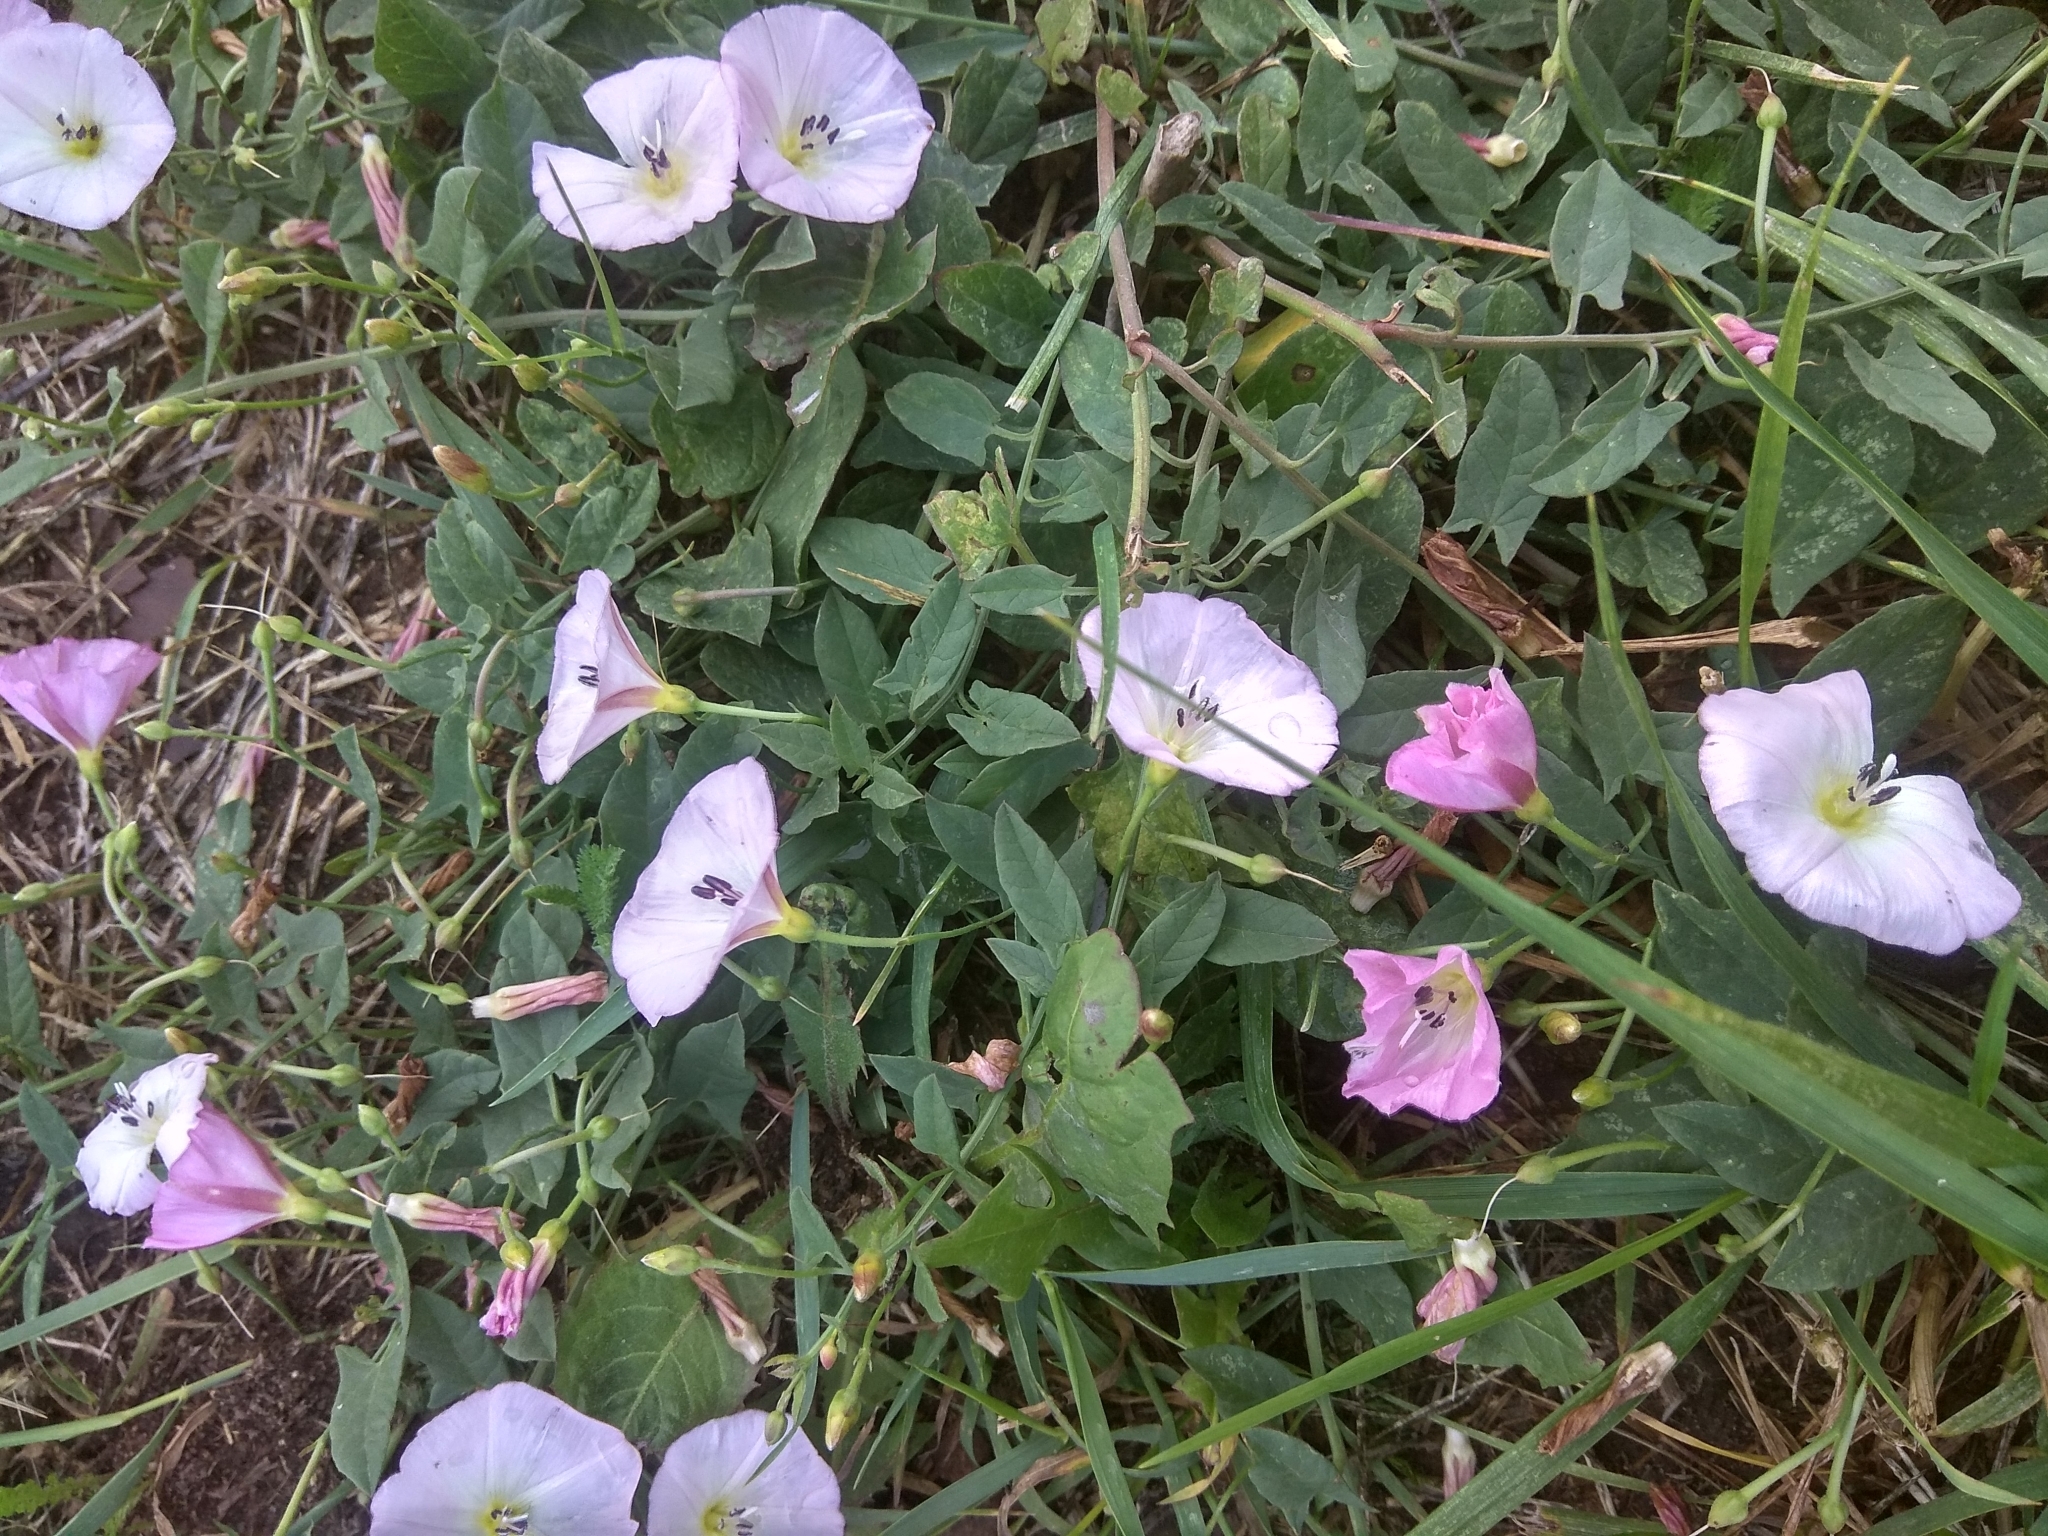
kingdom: Plantae
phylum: Tracheophyta
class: Magnoliopsida
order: Solanales
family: Convolvulaceae
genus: Convolvulus
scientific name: Convolvulus arvensis
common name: Field bindweed
